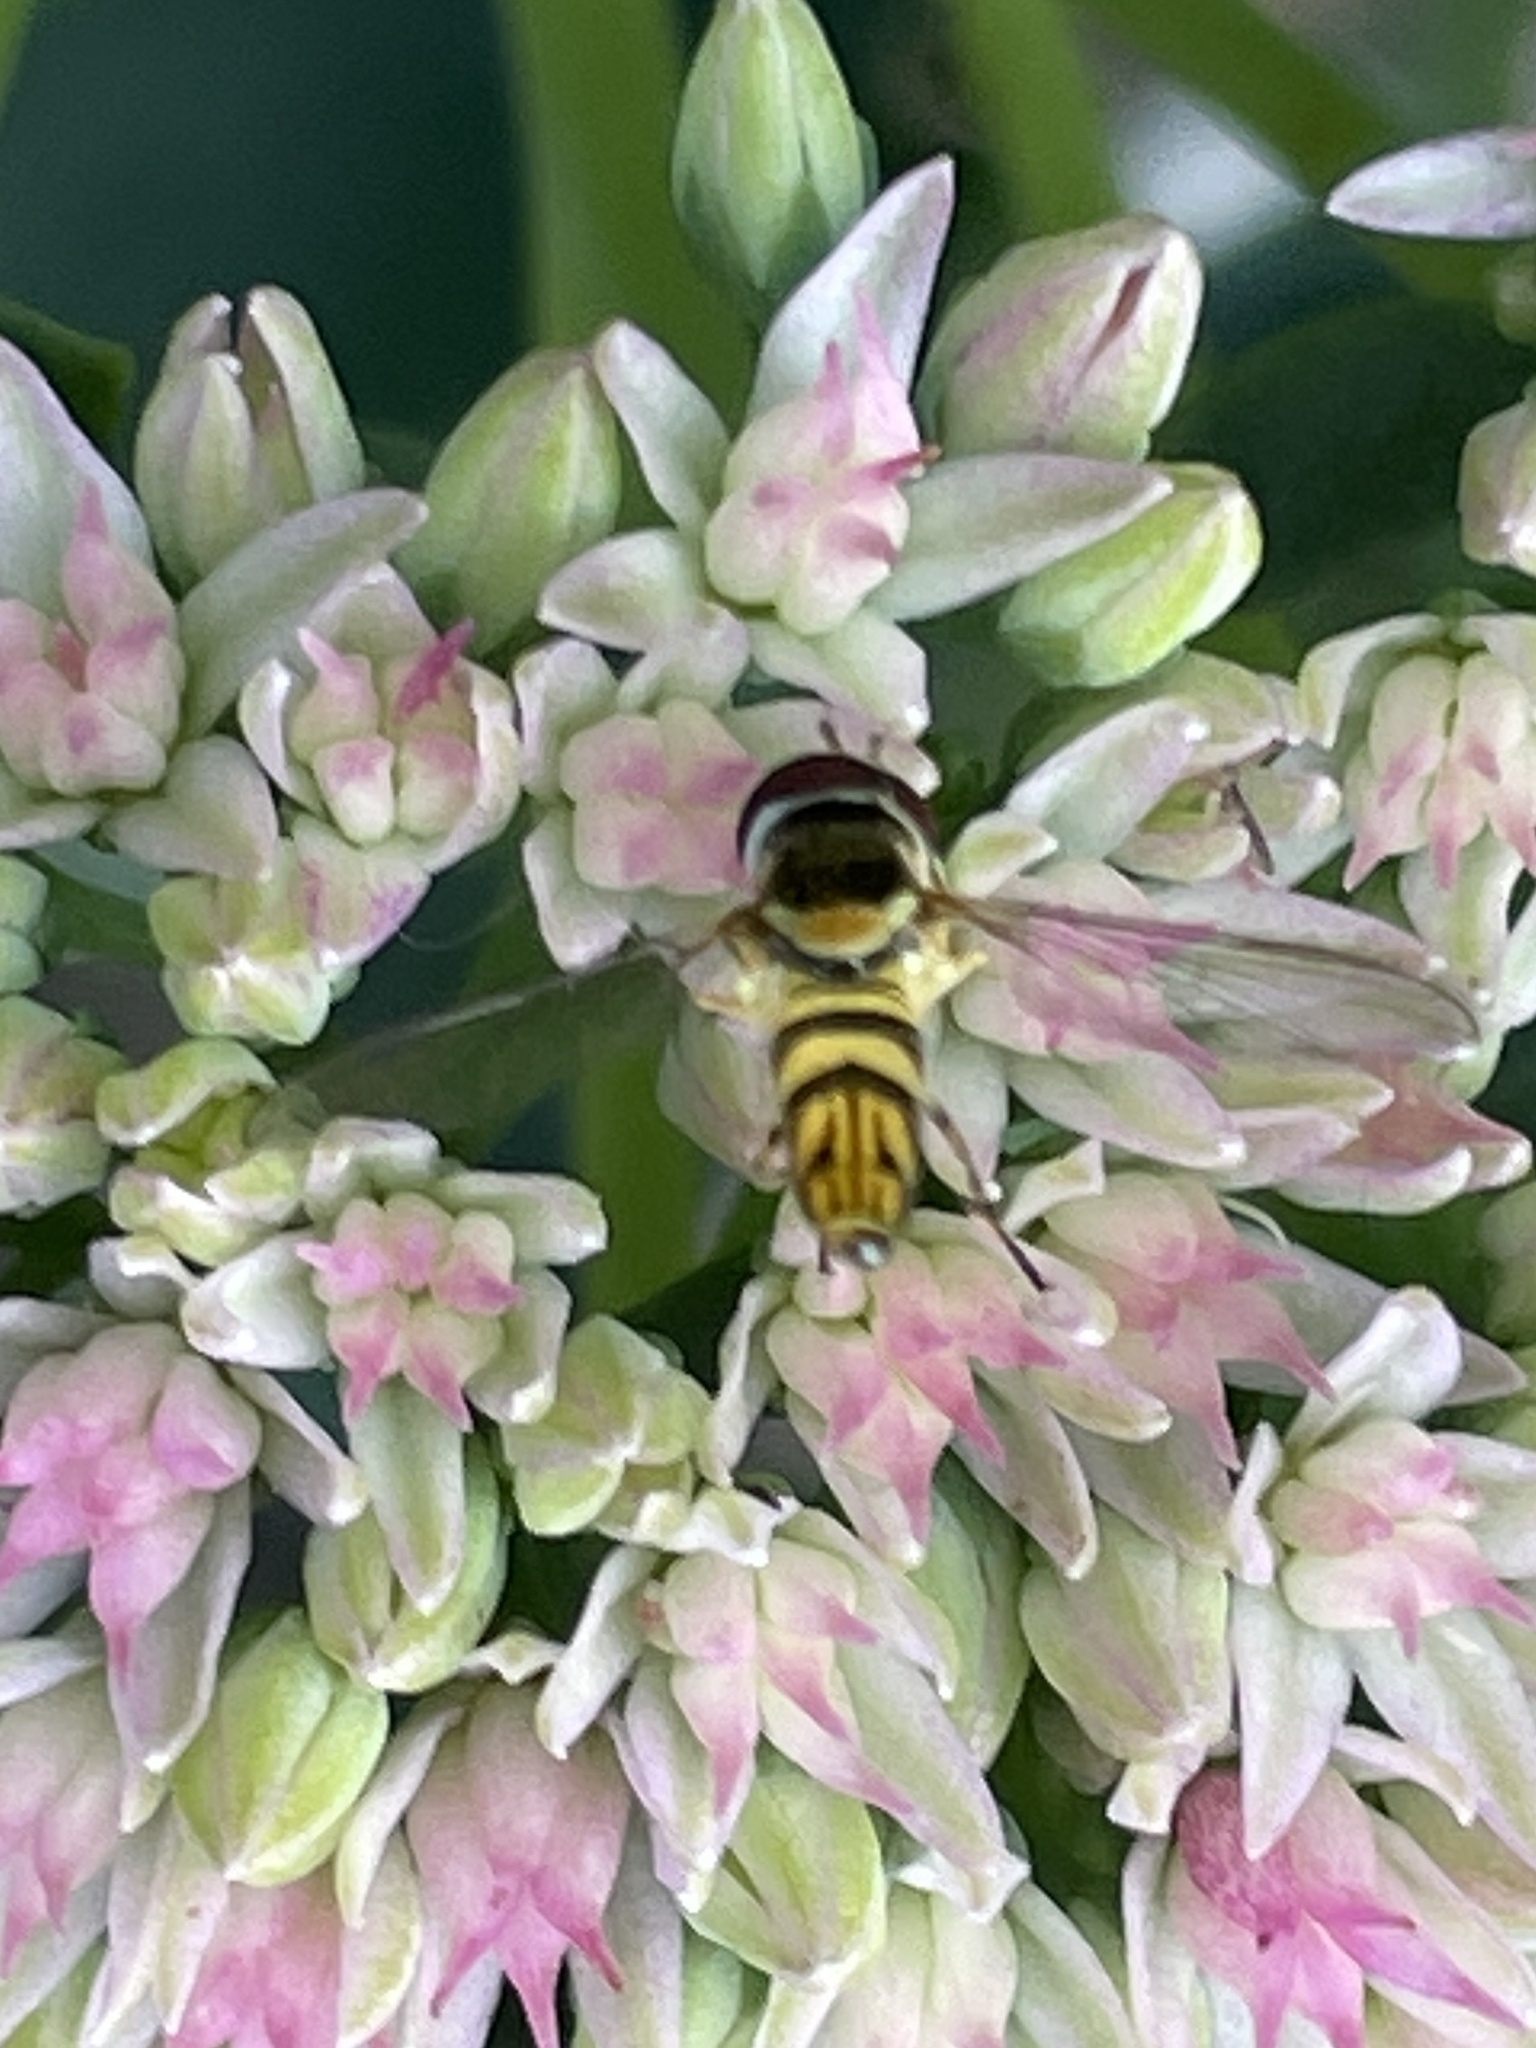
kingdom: Animalia
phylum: Arthropoda
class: Insecta
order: Diptera
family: Syrphidae
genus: Allograpta
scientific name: Allograpta obliqua
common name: Common oblique syrphid
